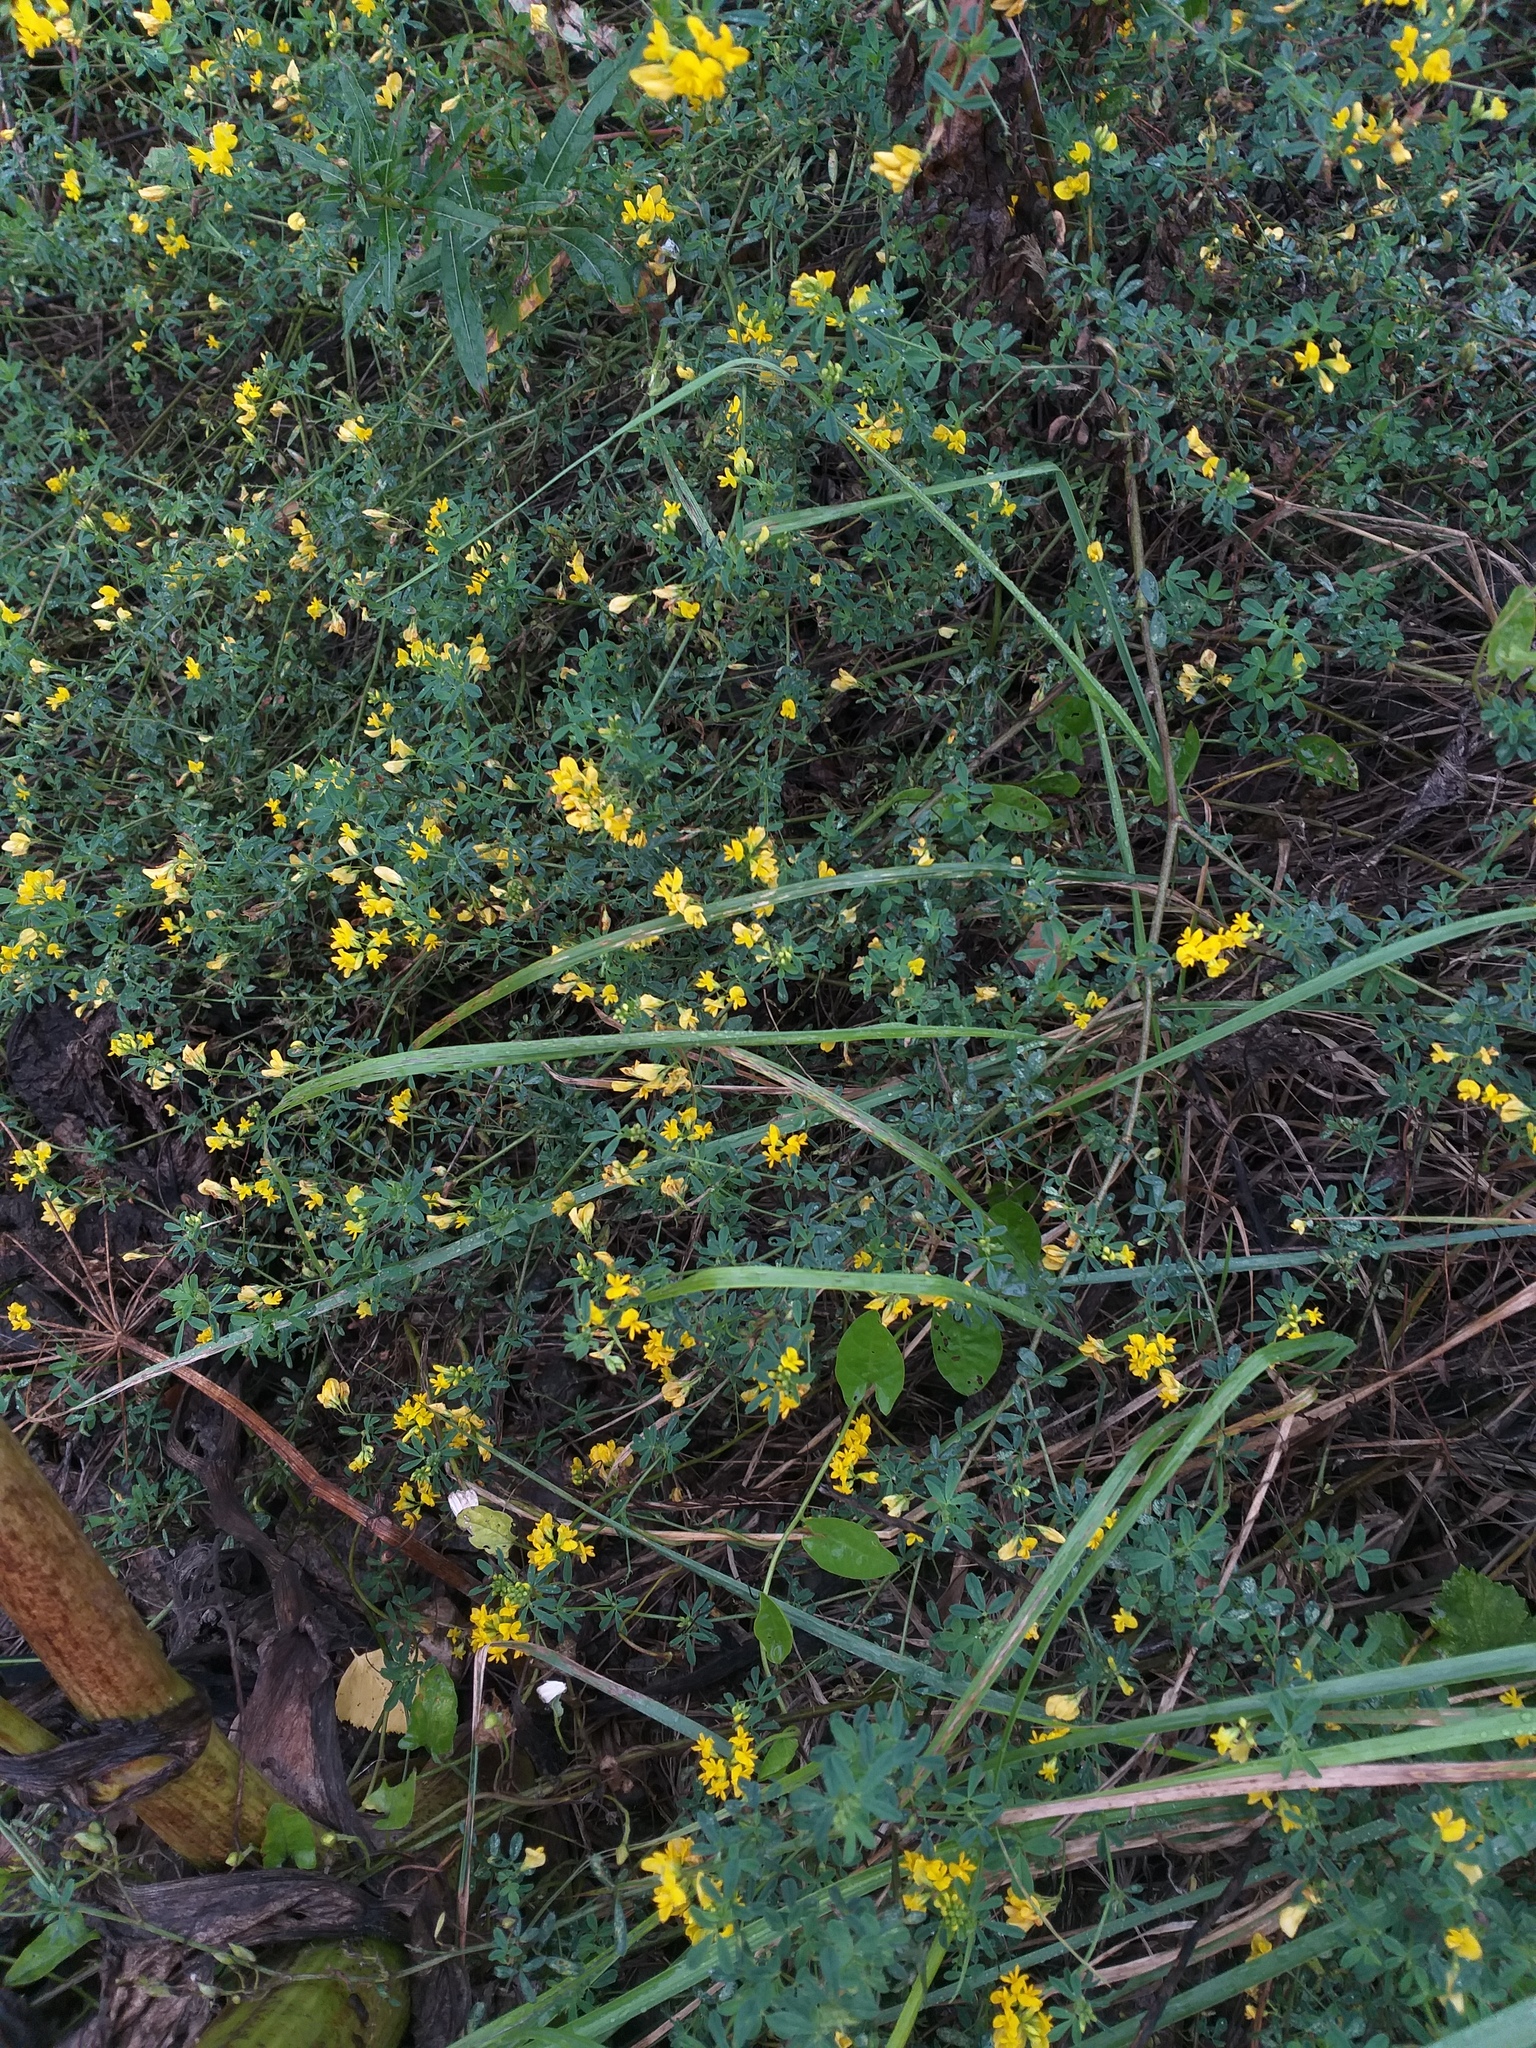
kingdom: Plantae
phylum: Tracheophyta
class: Magnoliopsida
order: Fabales
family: Fabaceae
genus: Medicago
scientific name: Medicago falcata
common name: Sickle medick
